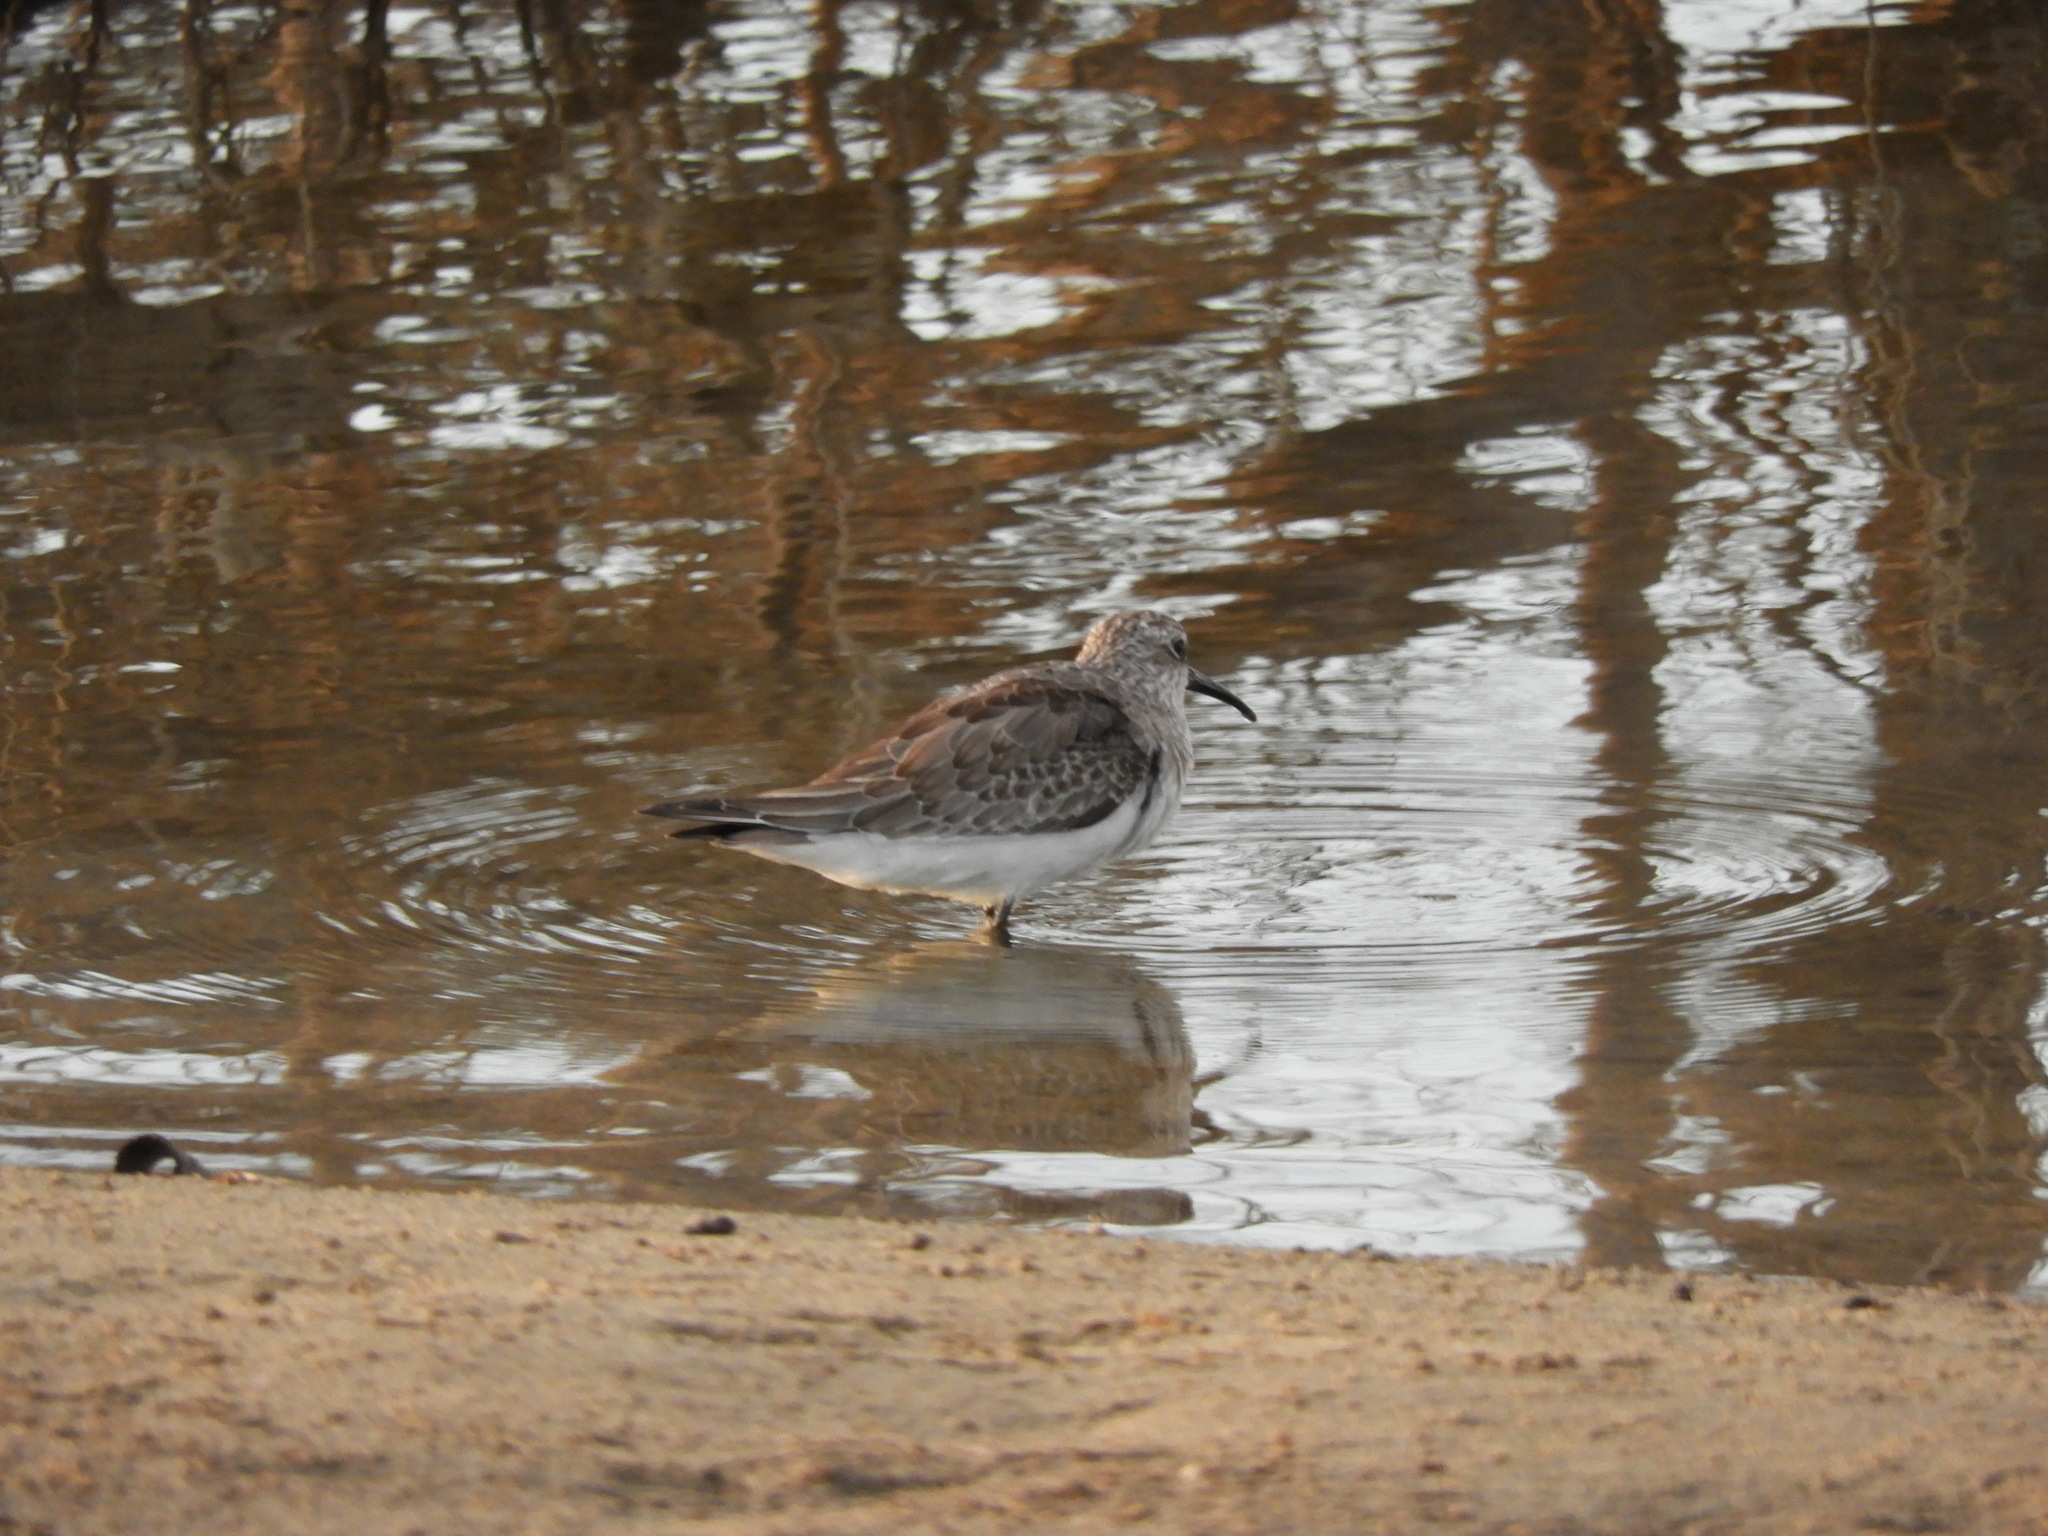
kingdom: Animalia
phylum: Chordata
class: Aves
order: Charadriiformes
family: Scolopacidae
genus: Calidris
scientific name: Calidris ferruginea
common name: Curlew sandpiper
